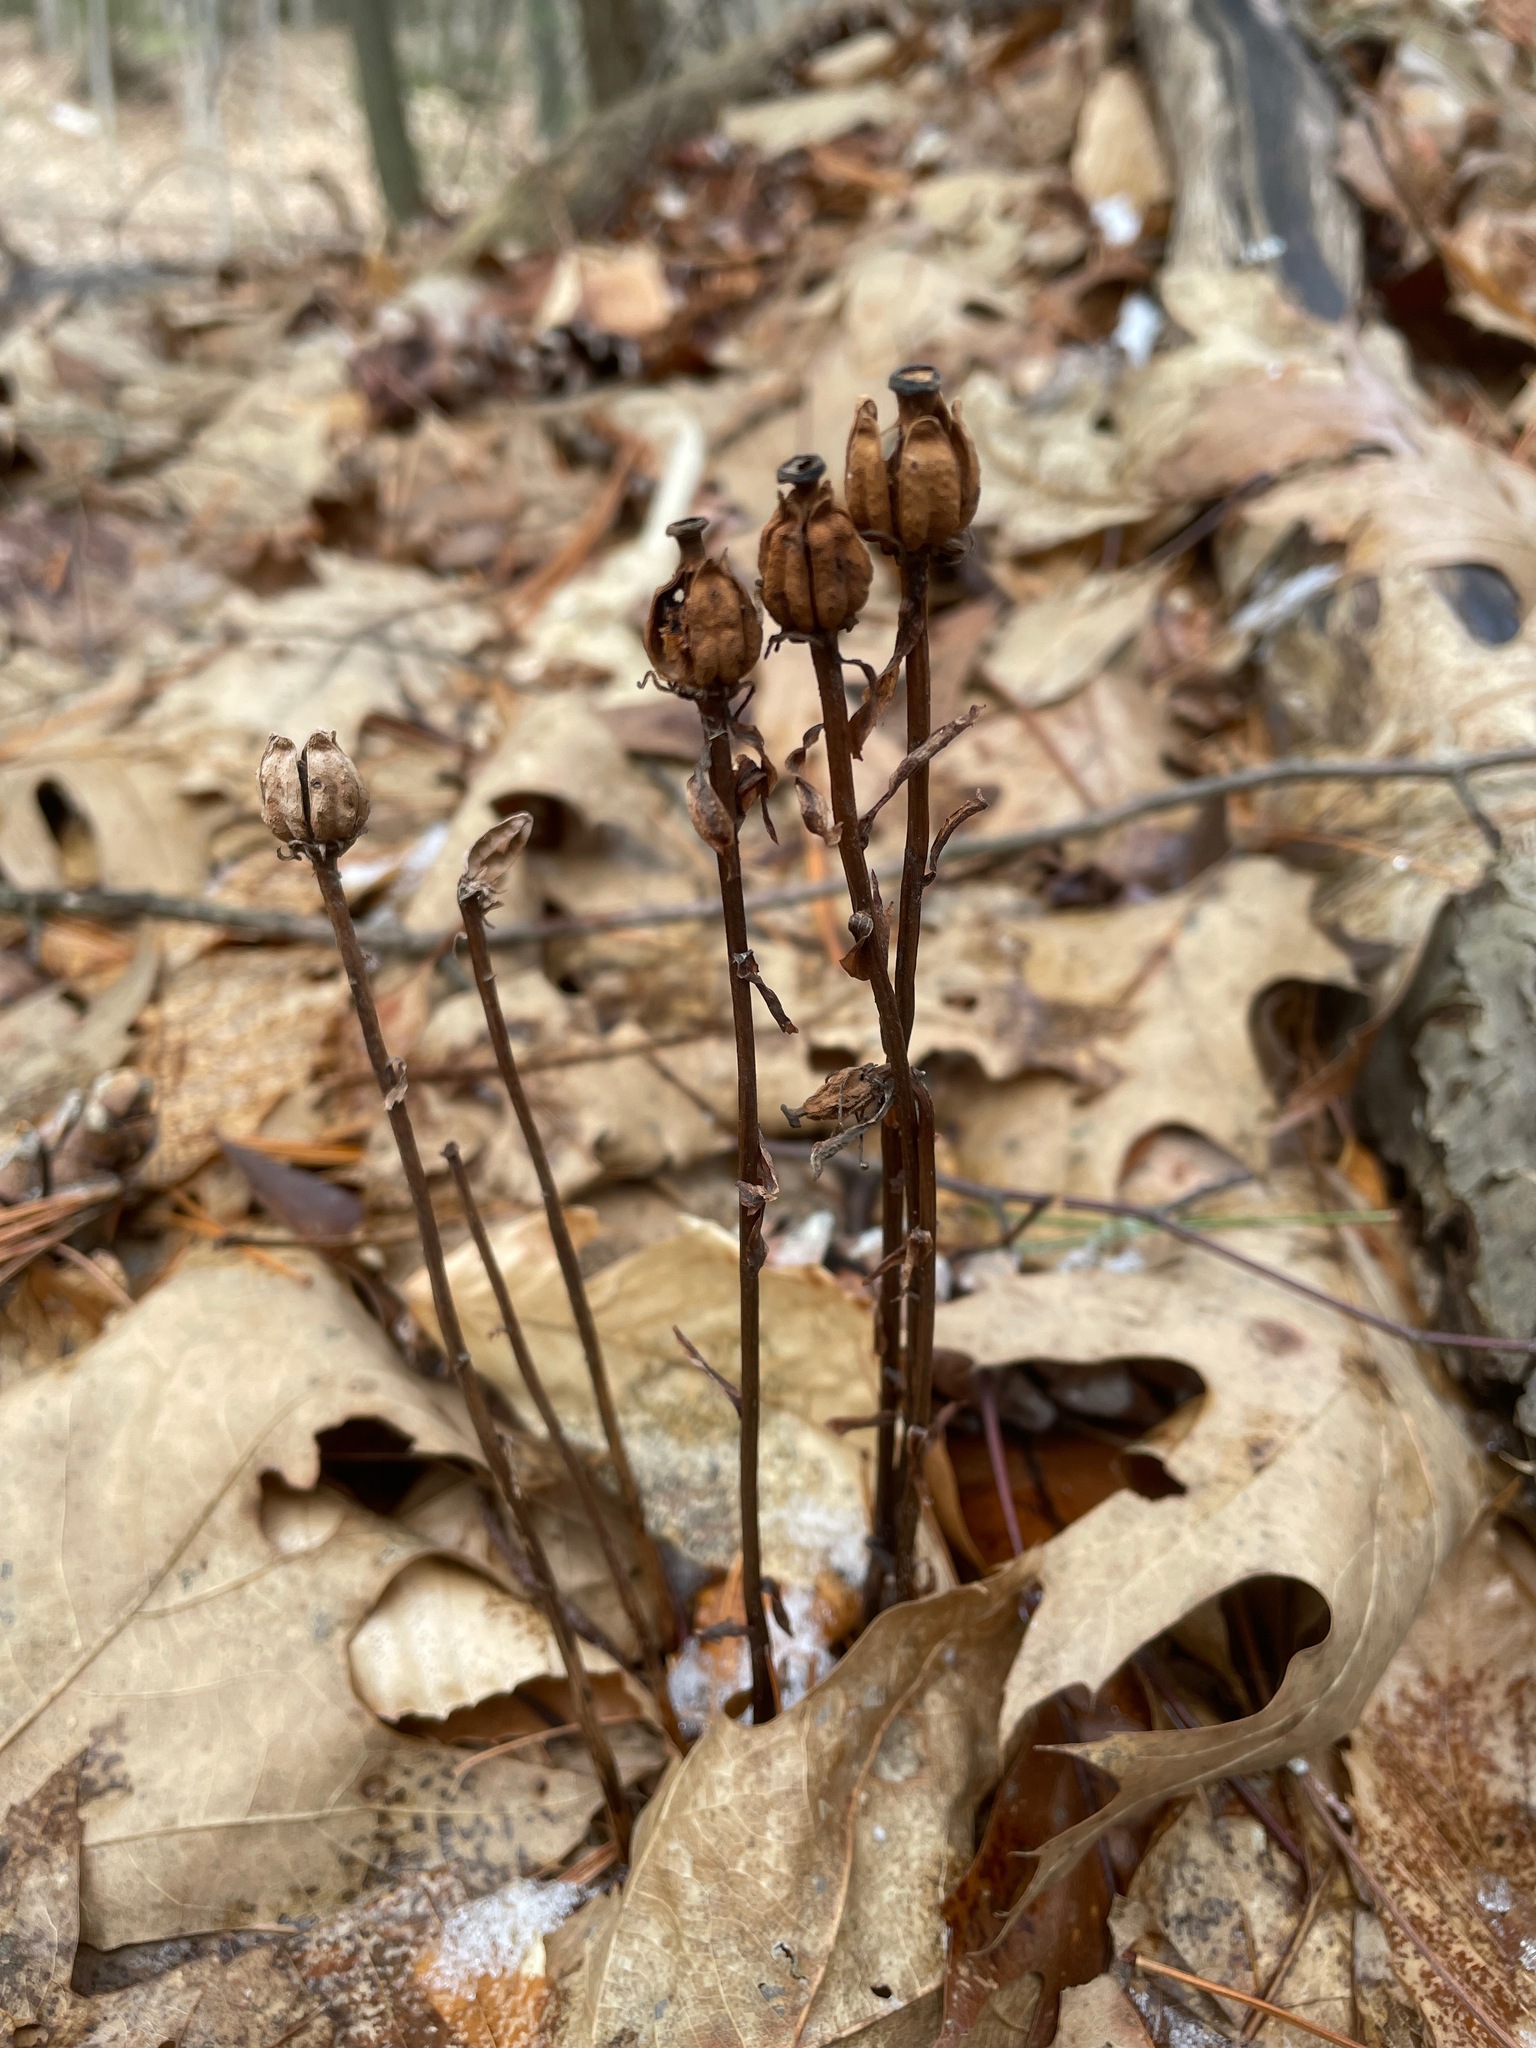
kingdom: Plantae
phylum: Tracheophyta
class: Magnoliopsida
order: Ericales
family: Ericaceae
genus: Monotropa
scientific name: Monotropa uniflora
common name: Convulsion root
